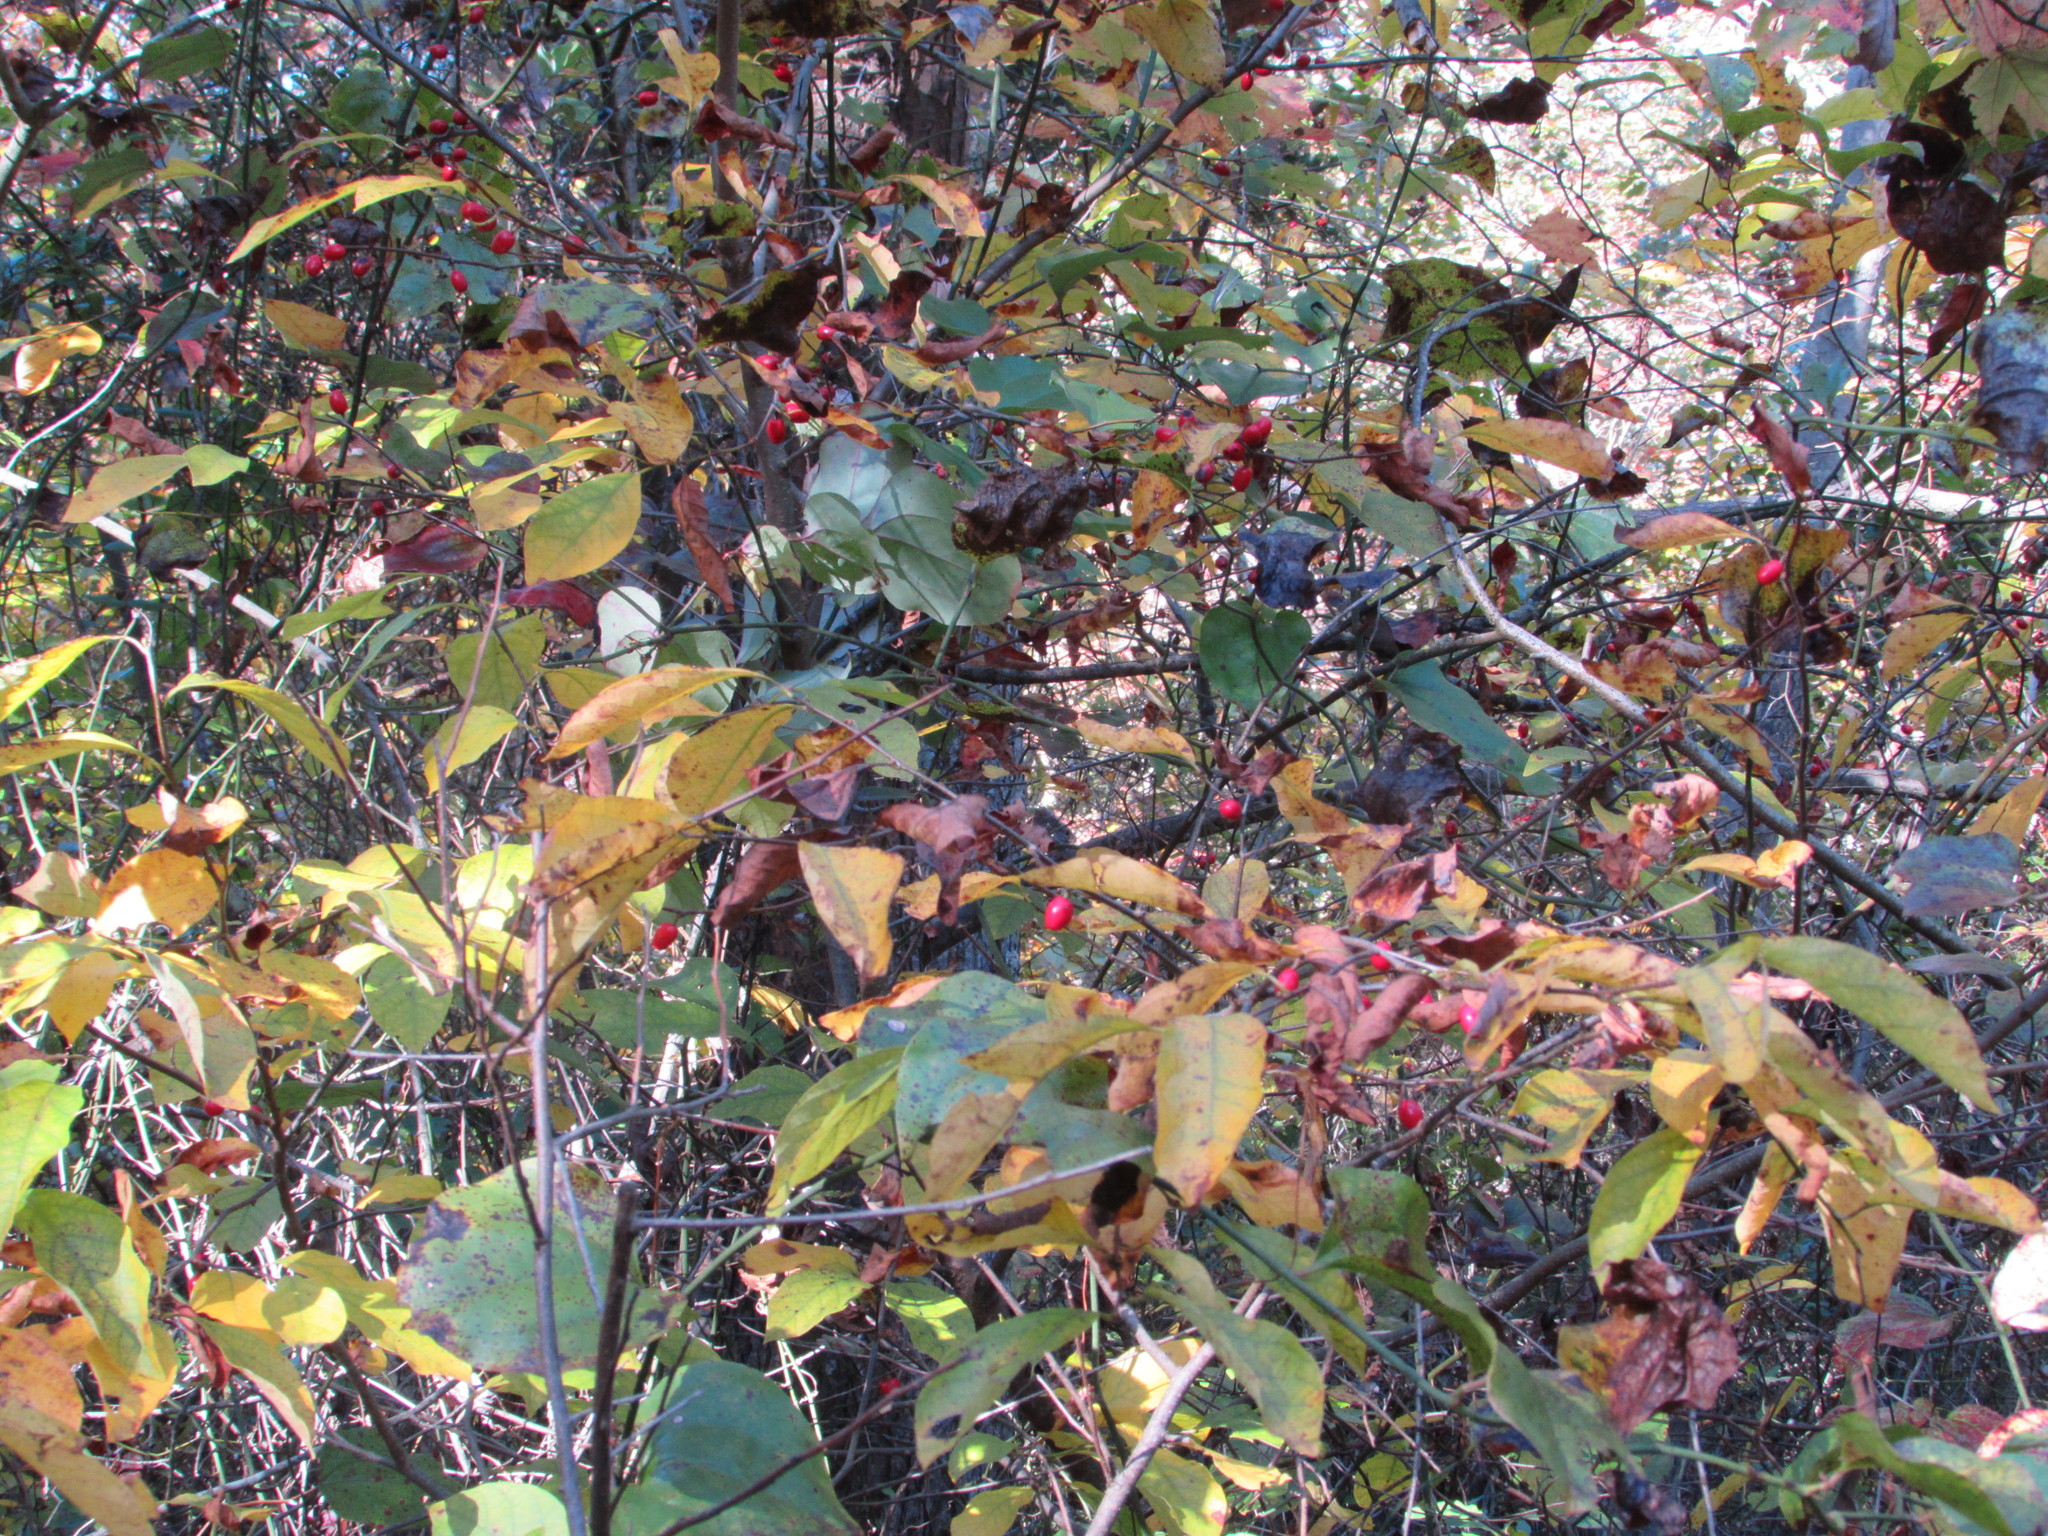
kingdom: Plantae
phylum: Tracheophyta
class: Magnoliopsida
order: Laurales
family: Lauraceae
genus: Lindera
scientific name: Lindera benzoin
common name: Spicebush
